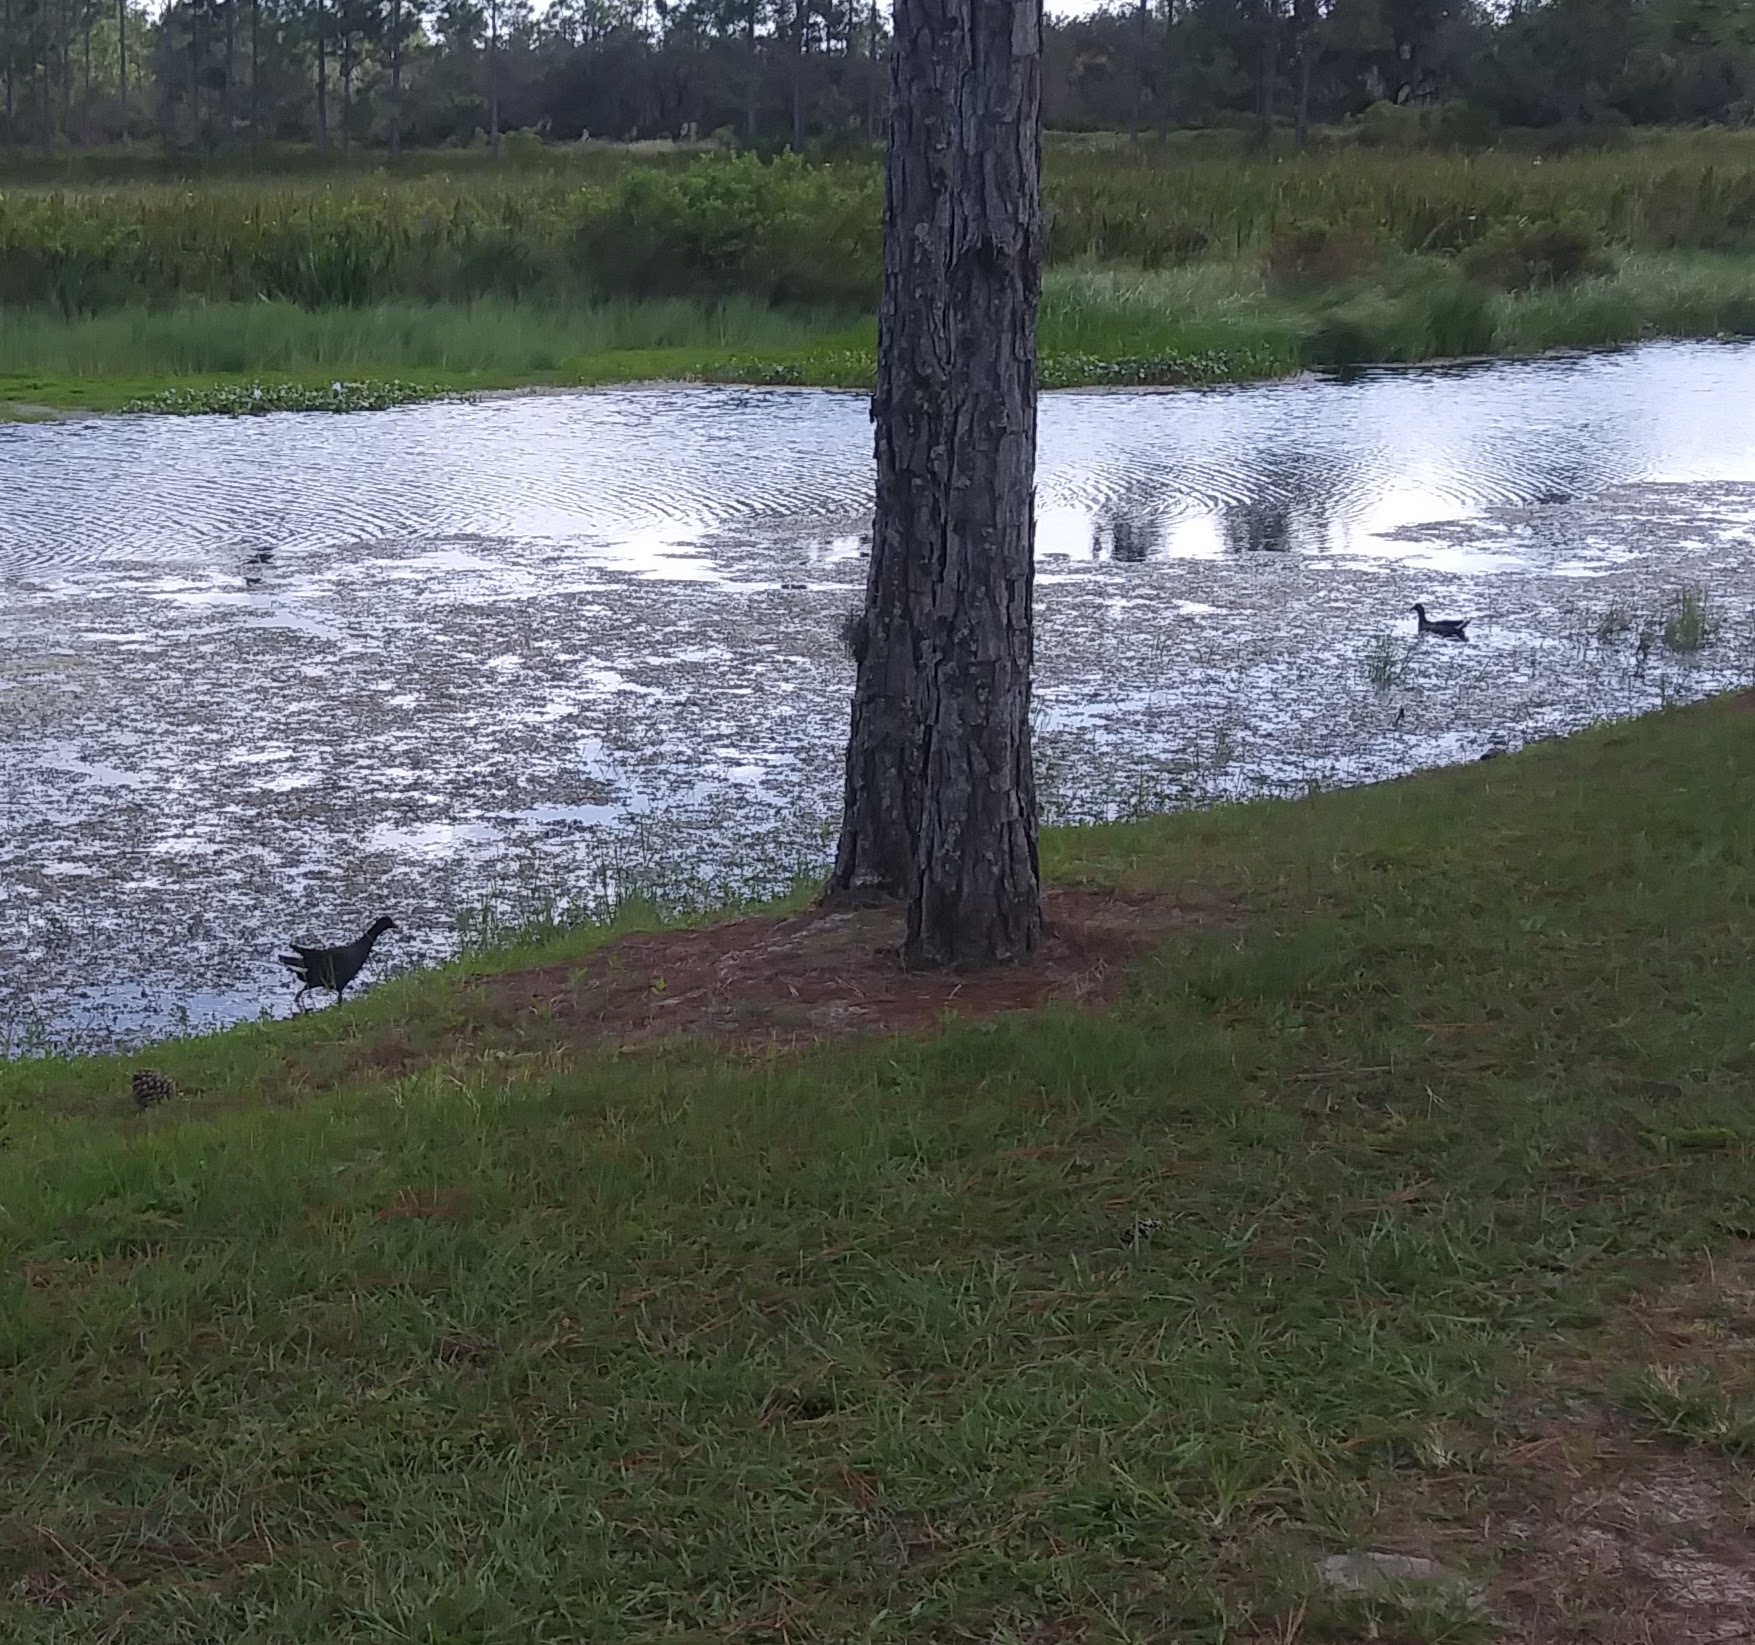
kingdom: Animalia
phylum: Chordata
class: Aves
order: Gruiformes
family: Rallidae
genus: Gallinula
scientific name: Gallinula chloropus
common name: Common moorhen
